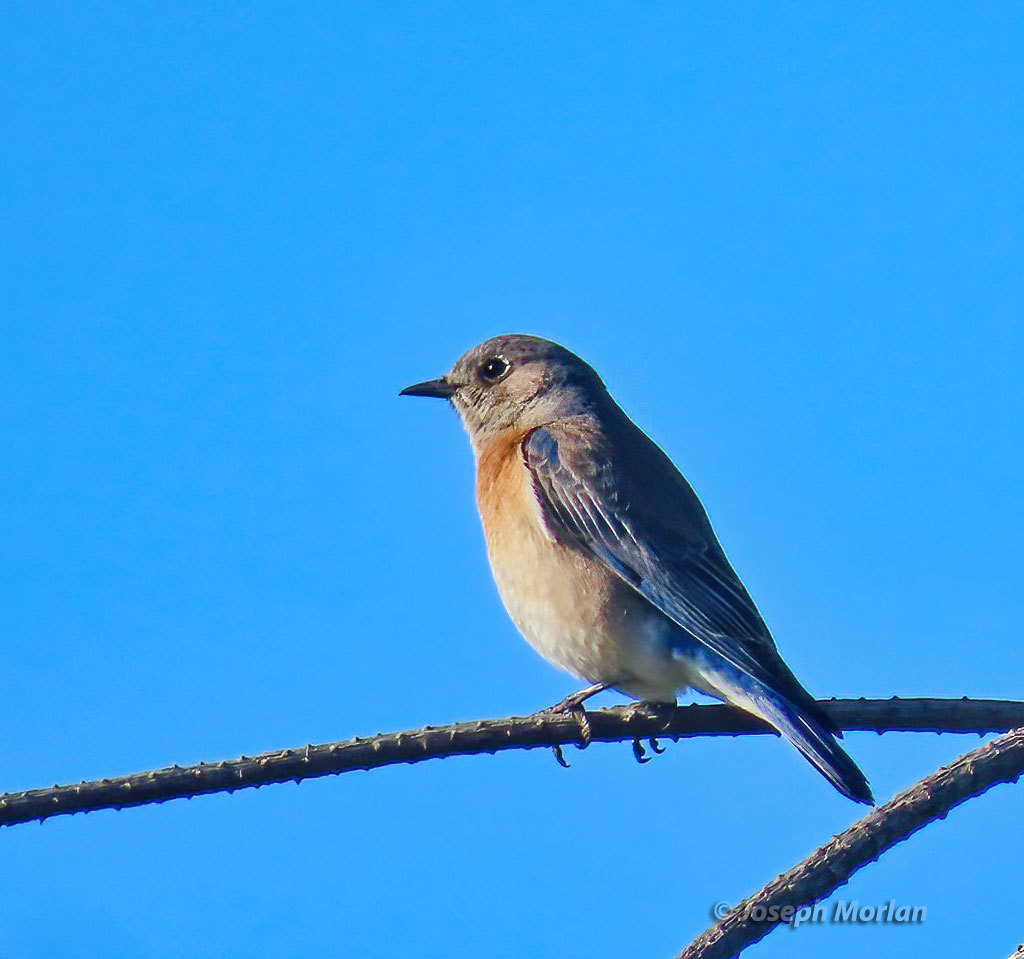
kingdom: Animalia
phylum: Chordata
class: Aves
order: Passeriformes
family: Turdidae
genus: Sialia
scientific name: Sialia mexicana
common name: Western bluebird
